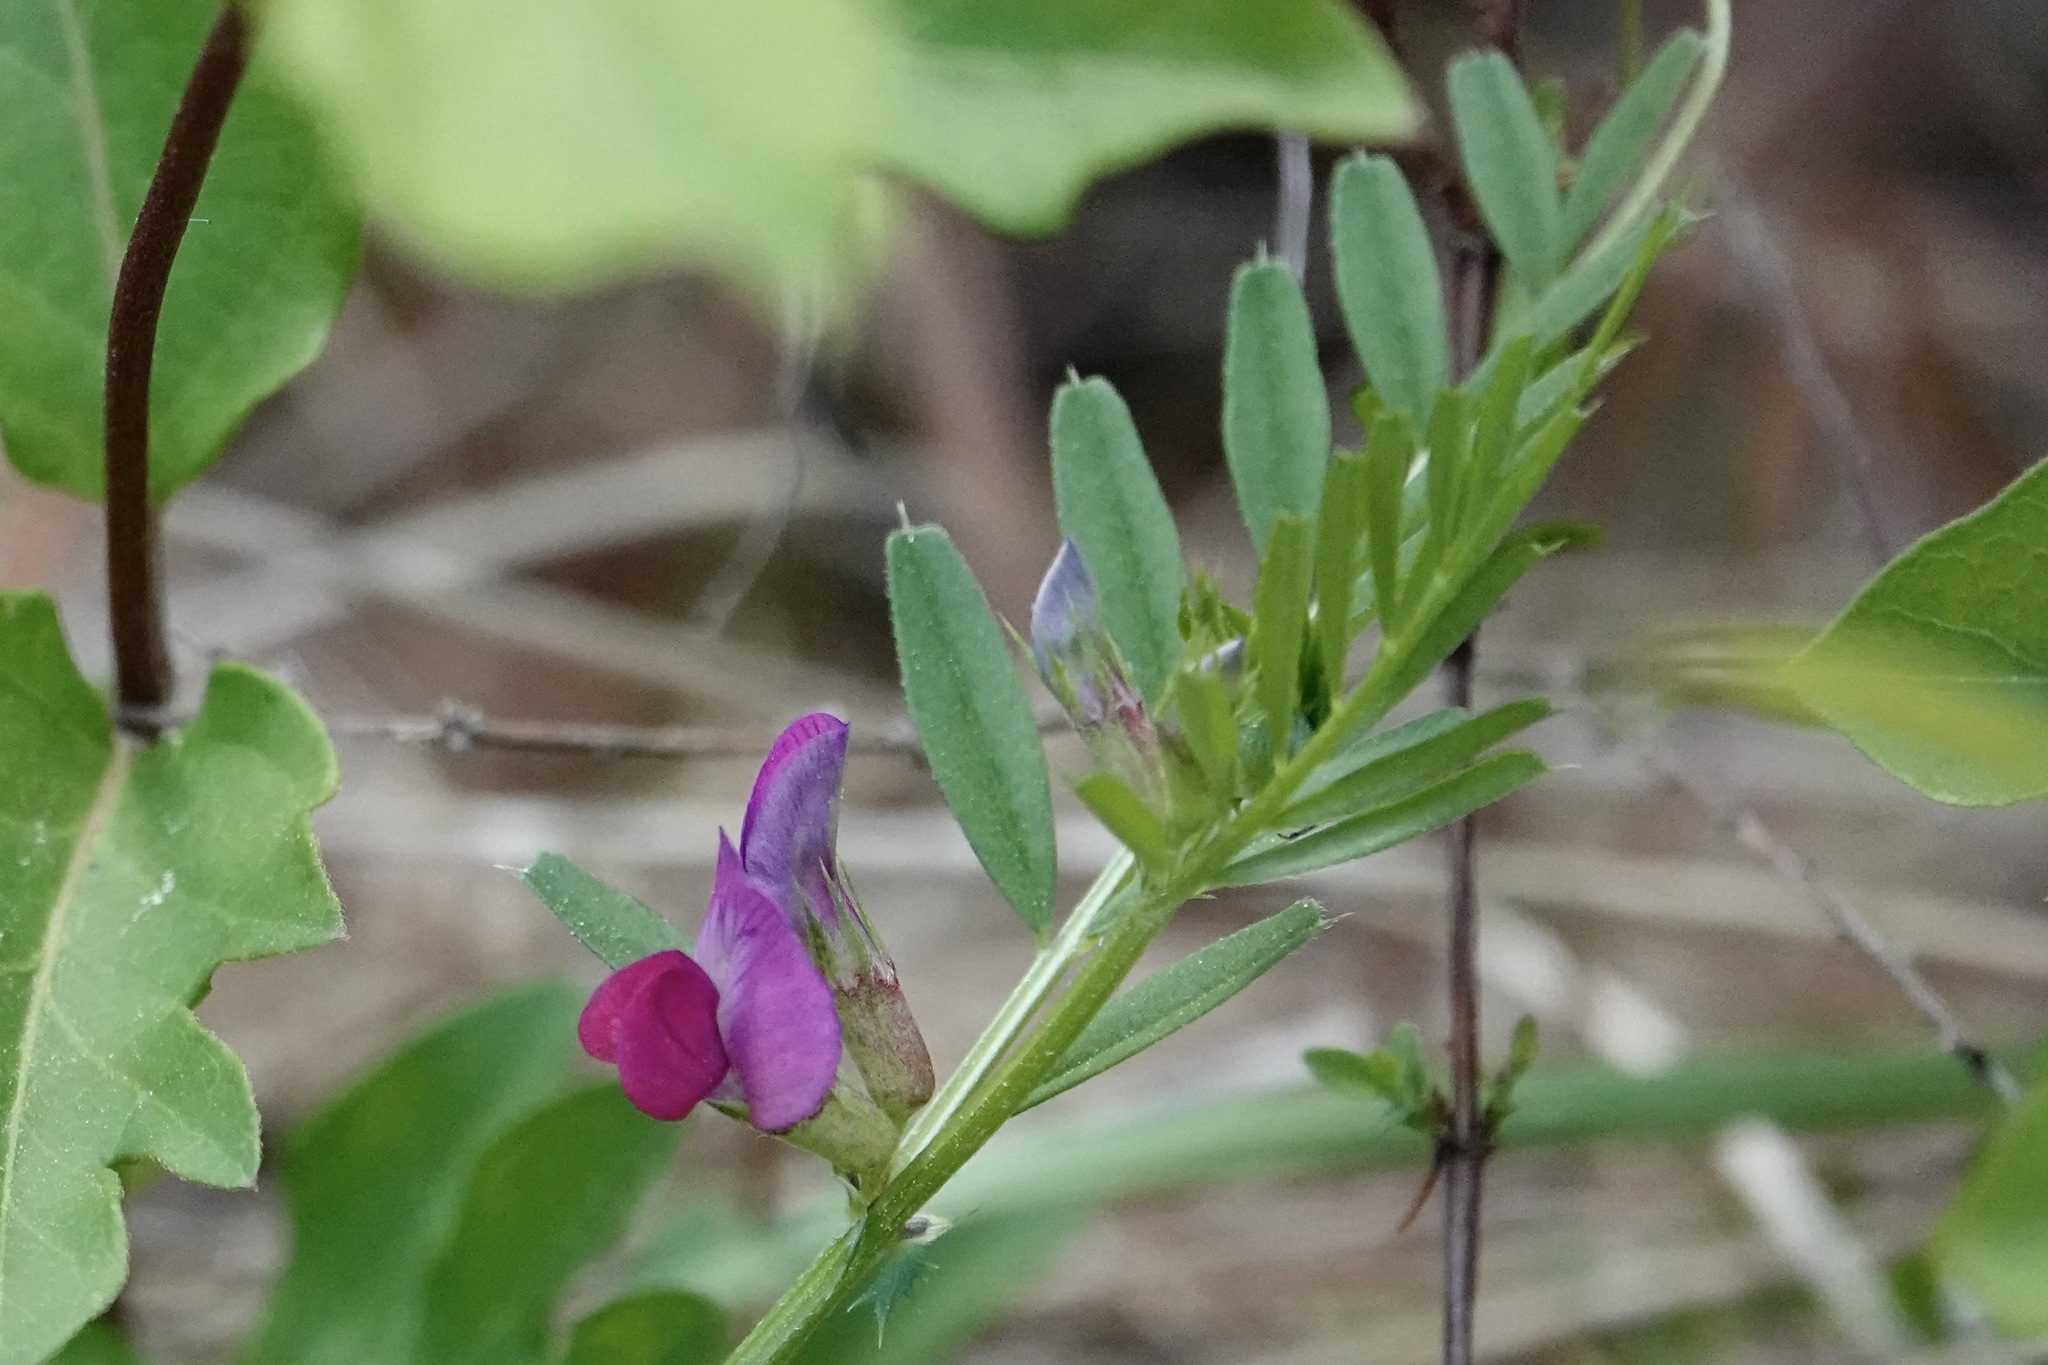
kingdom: Plantae
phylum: Tracheophyta
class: Magnoliopsida
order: Fabales
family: Fabaceae
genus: Vicia
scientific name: Vicia sativa
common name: Garden vetch
